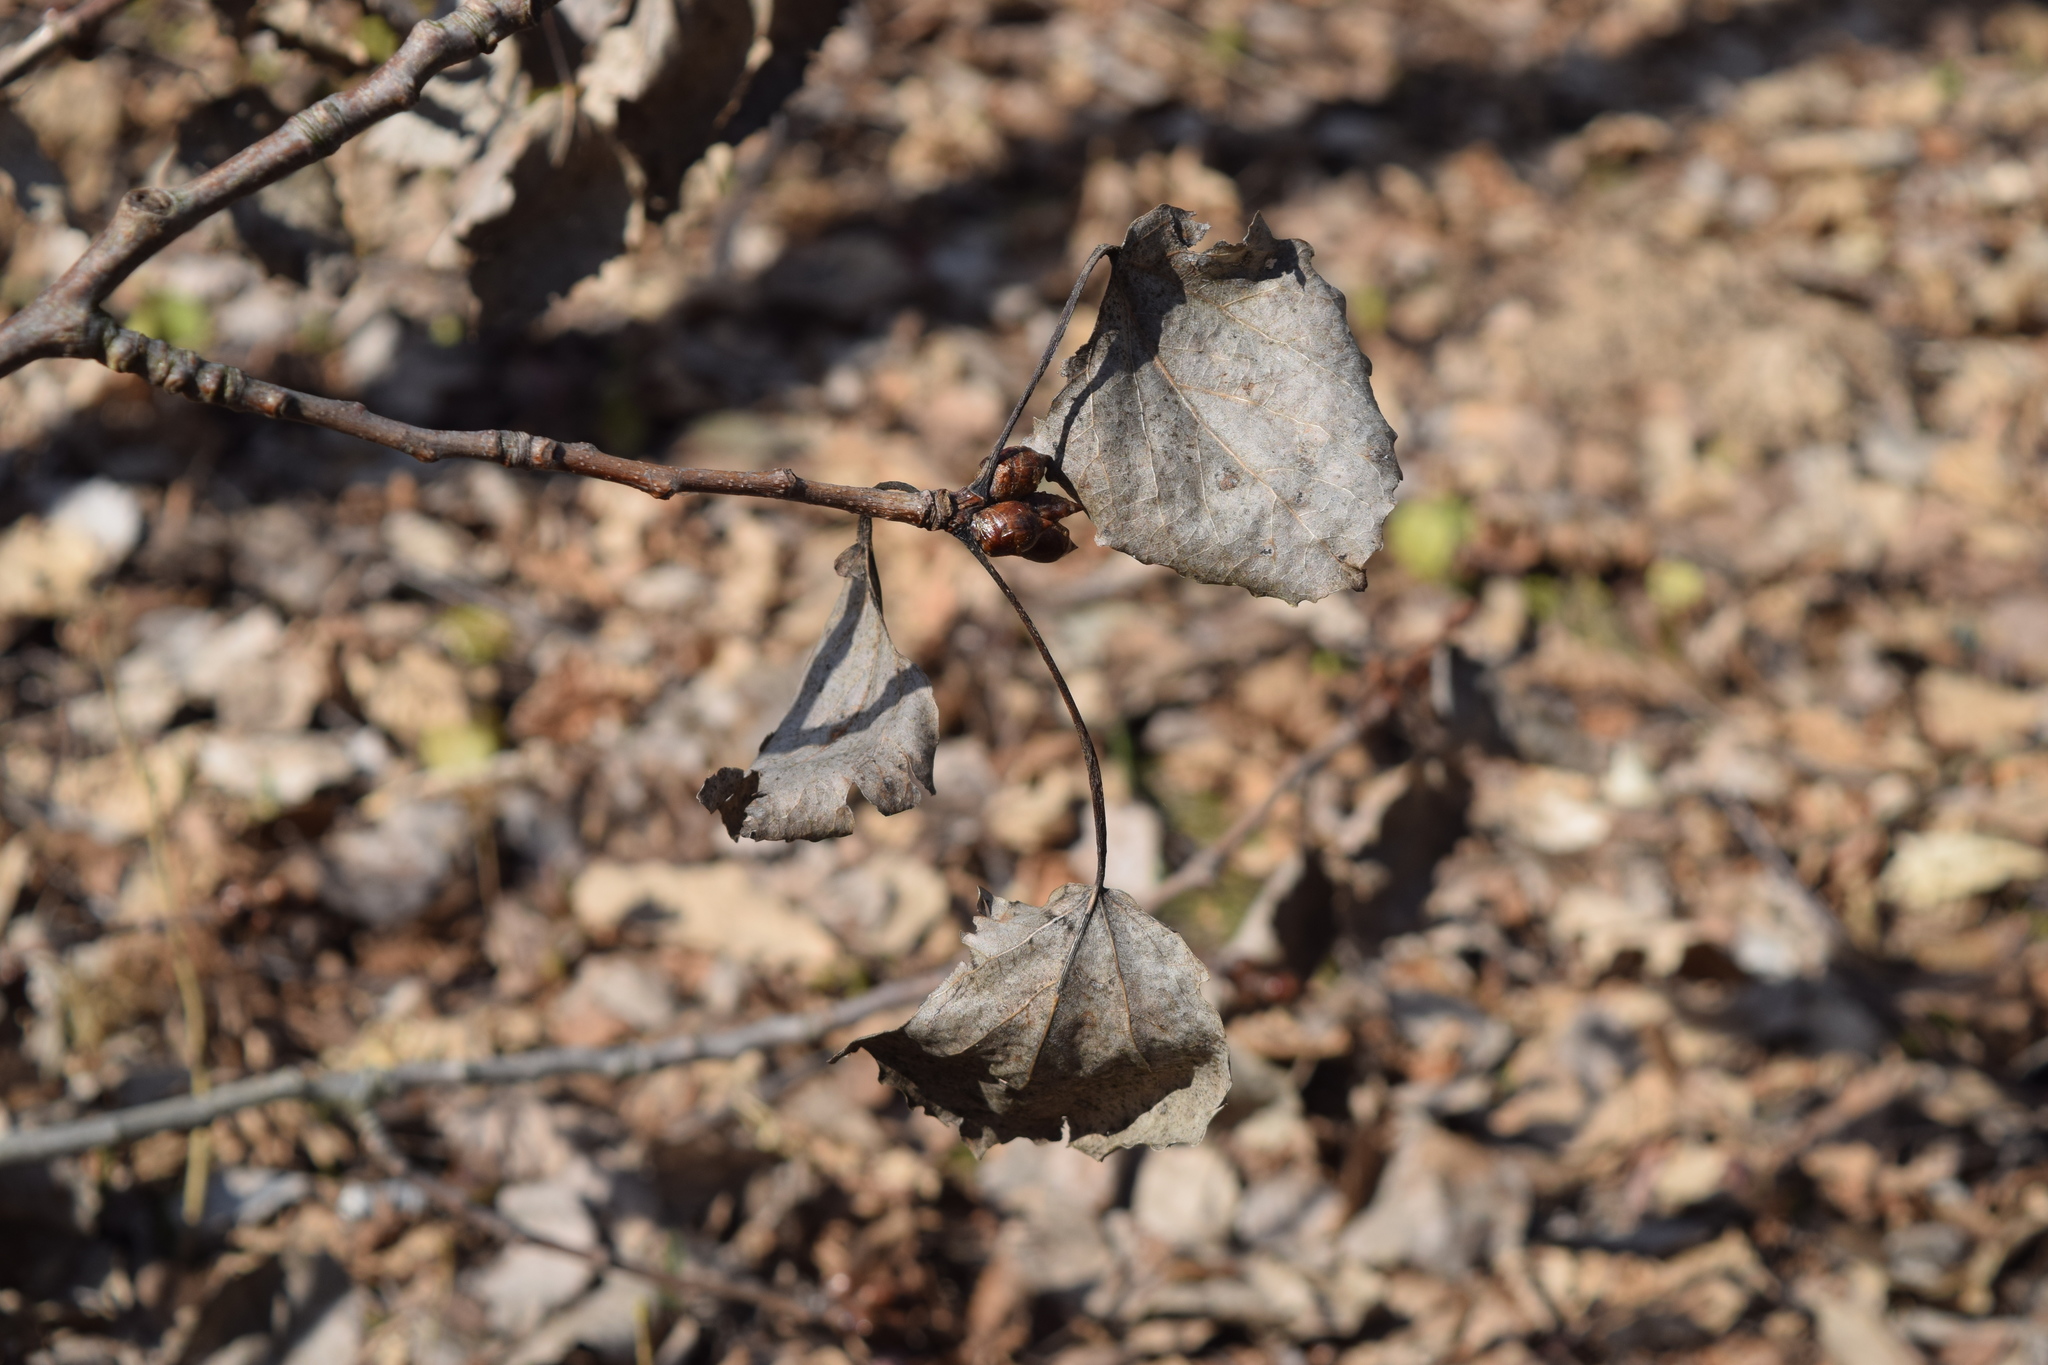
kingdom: Plantae
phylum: Tracheophyta
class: Magnoliopsida
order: Malpighiales
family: Salicaceae
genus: Populus
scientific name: Populus tremula
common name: European aspen
